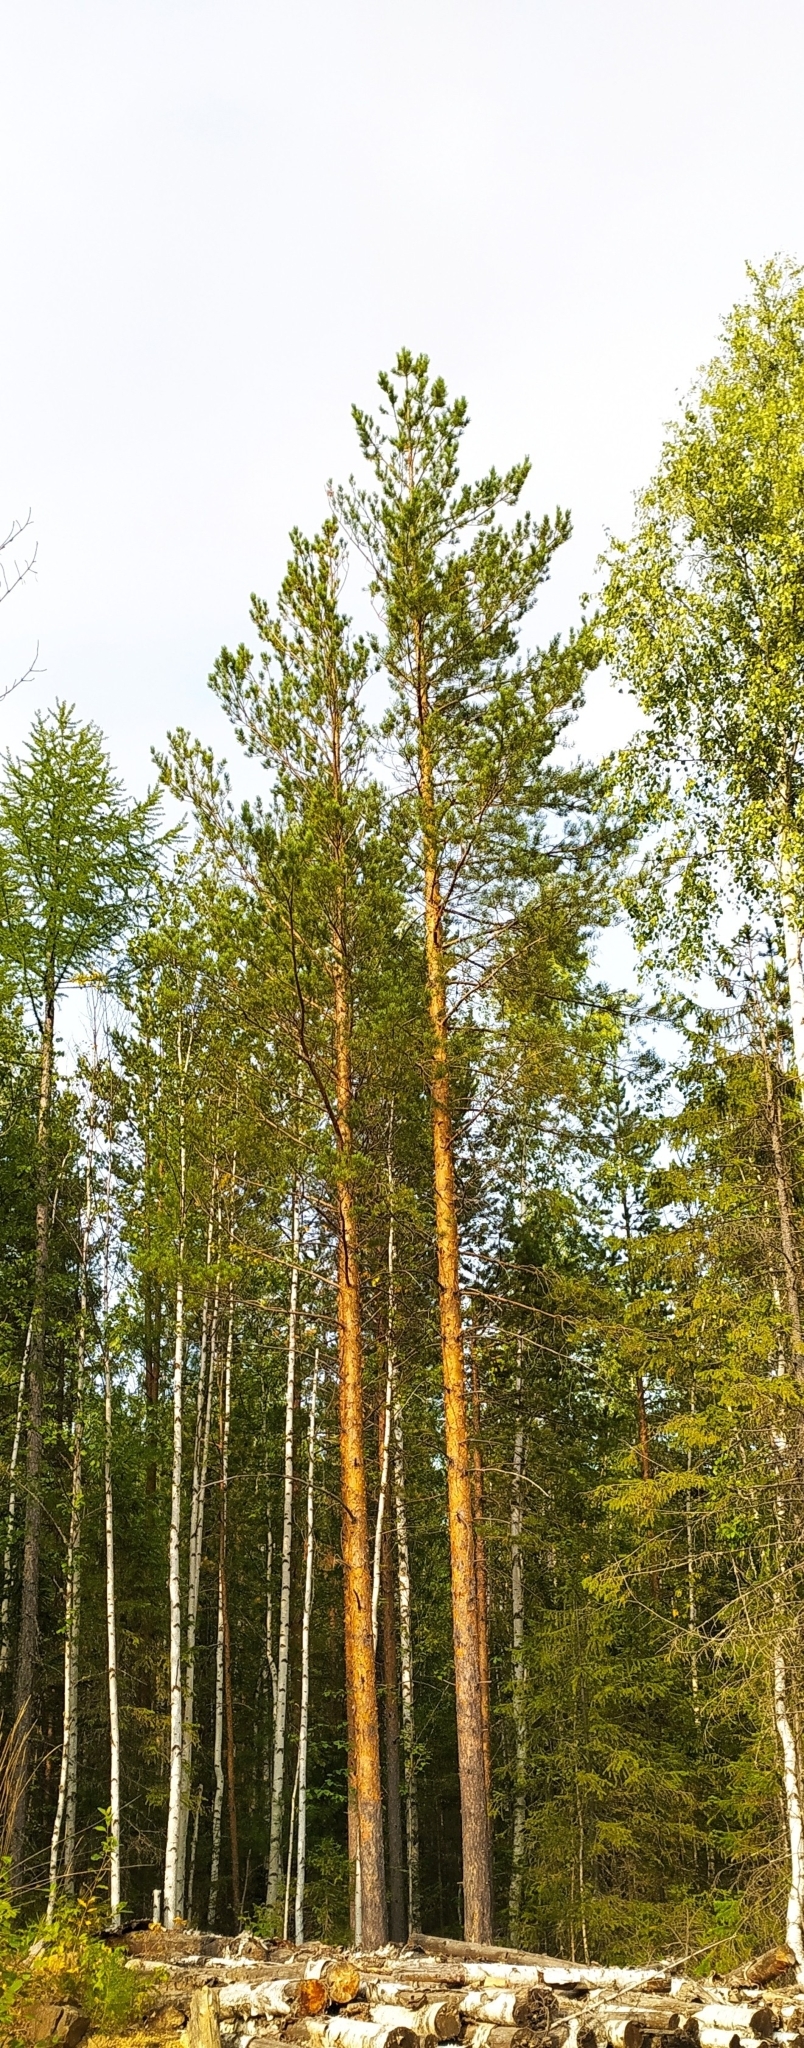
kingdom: Plantae
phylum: Tracheophyta
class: Pinopsida
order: Pinales
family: Pinaceae
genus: Pinus
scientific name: Pinus sylvestris
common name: Scots pine
